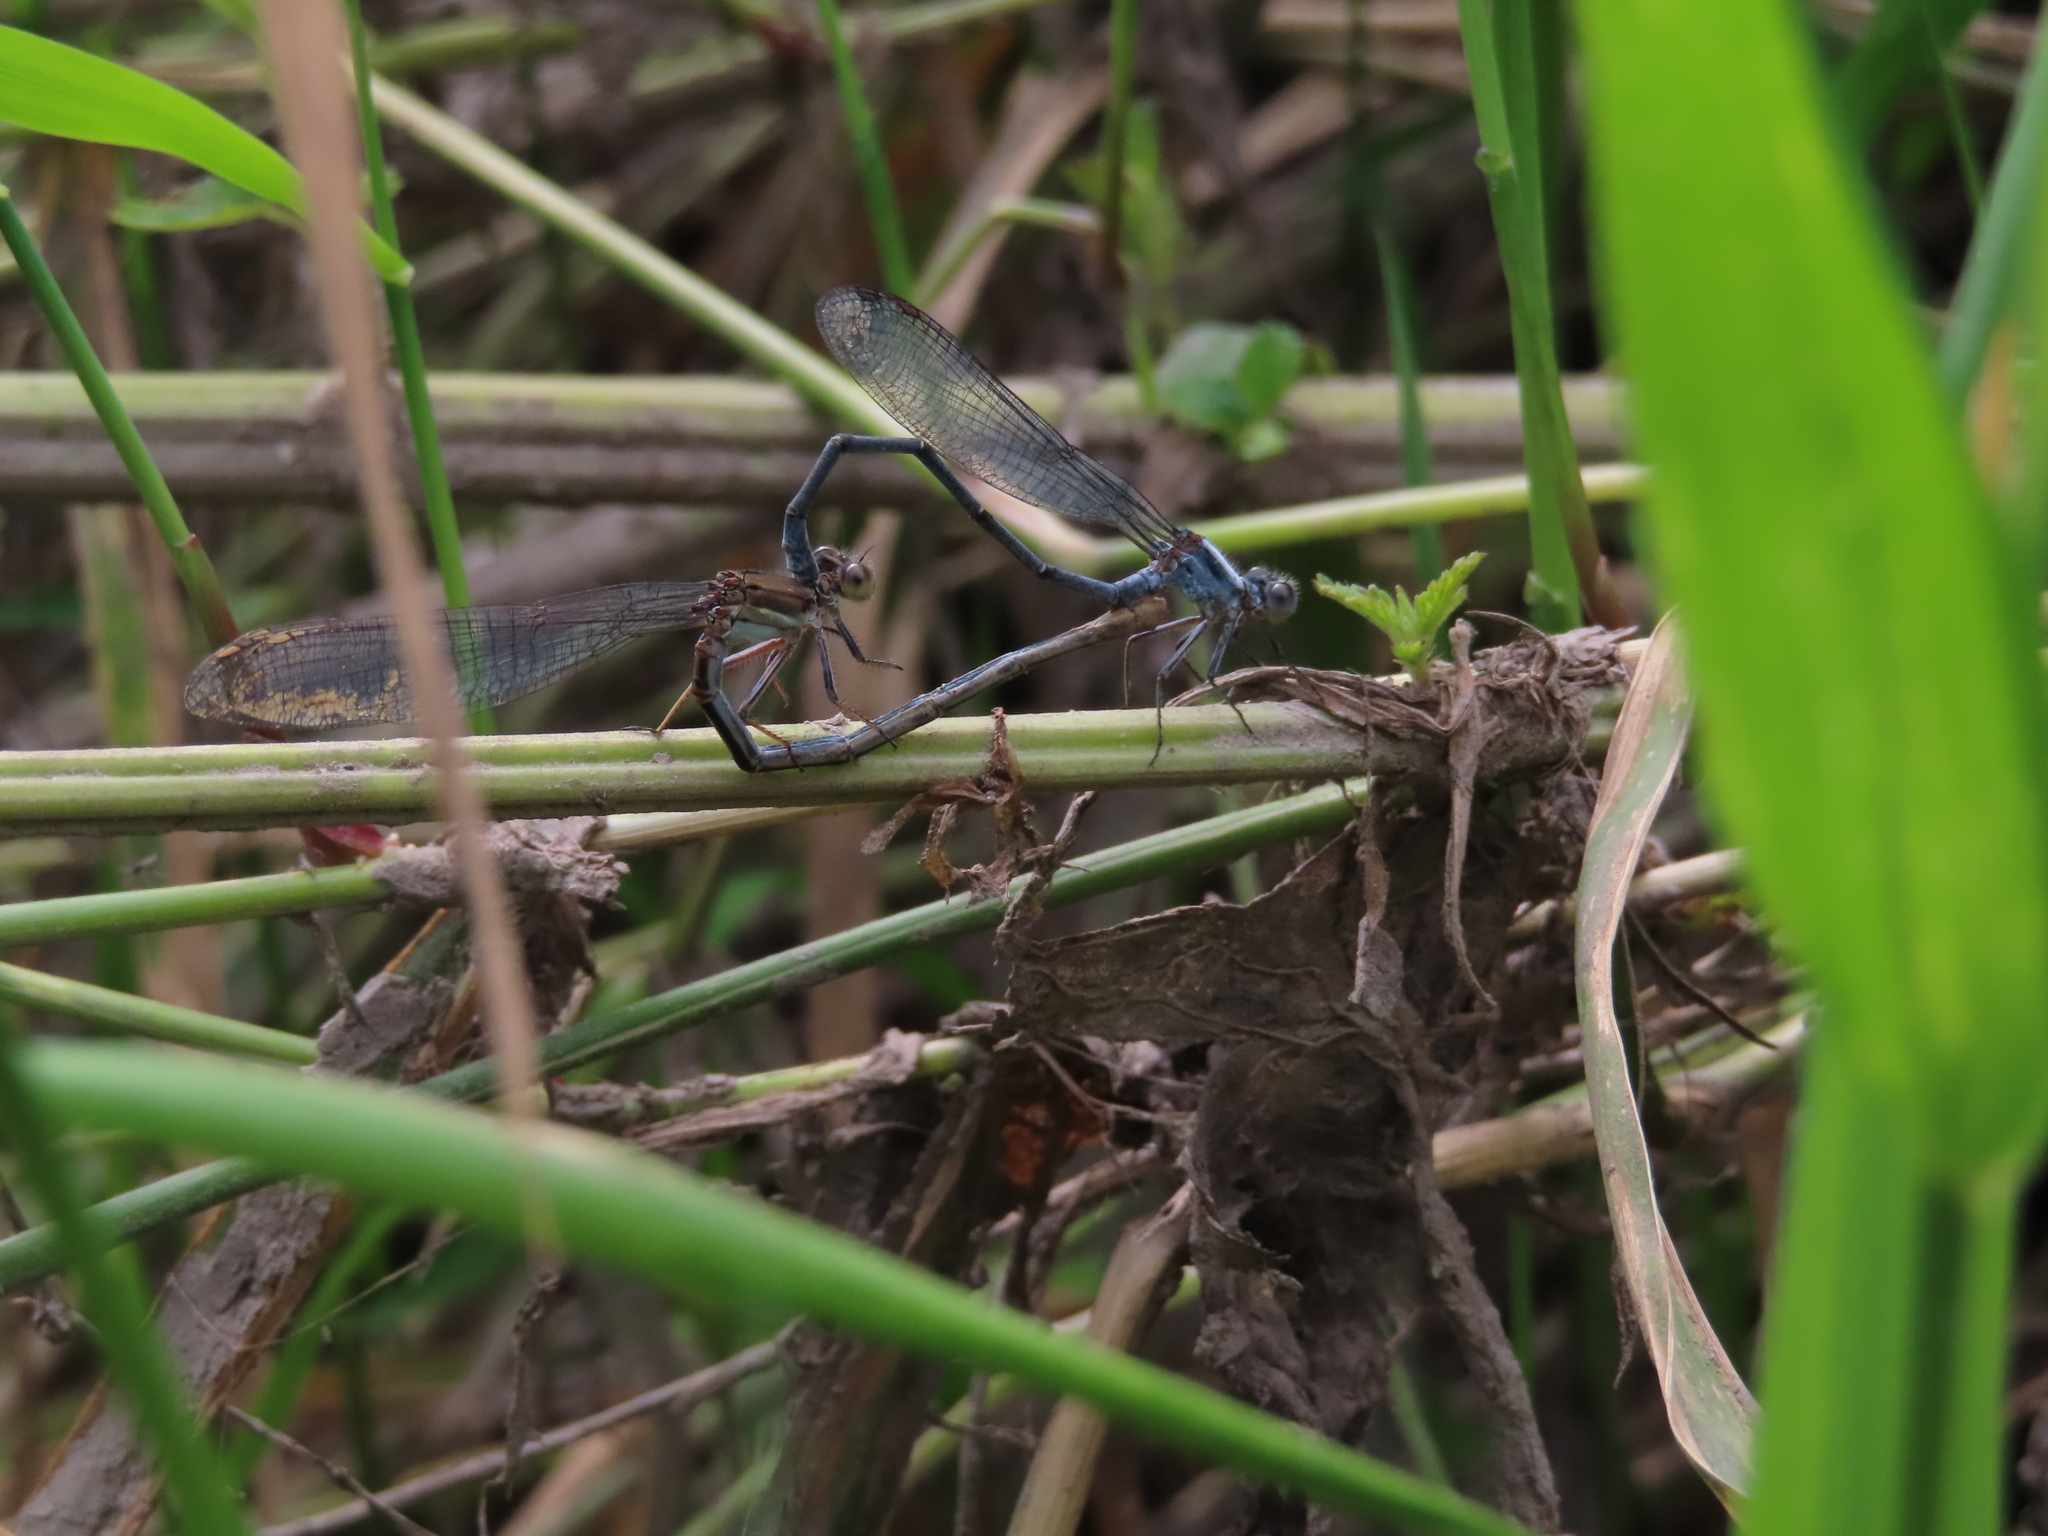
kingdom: Animalia
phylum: Arthropoda
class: Insecta
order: Odonata
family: Coenagrionidae
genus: Argia
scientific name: Argia moesta
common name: Powdered dancer
